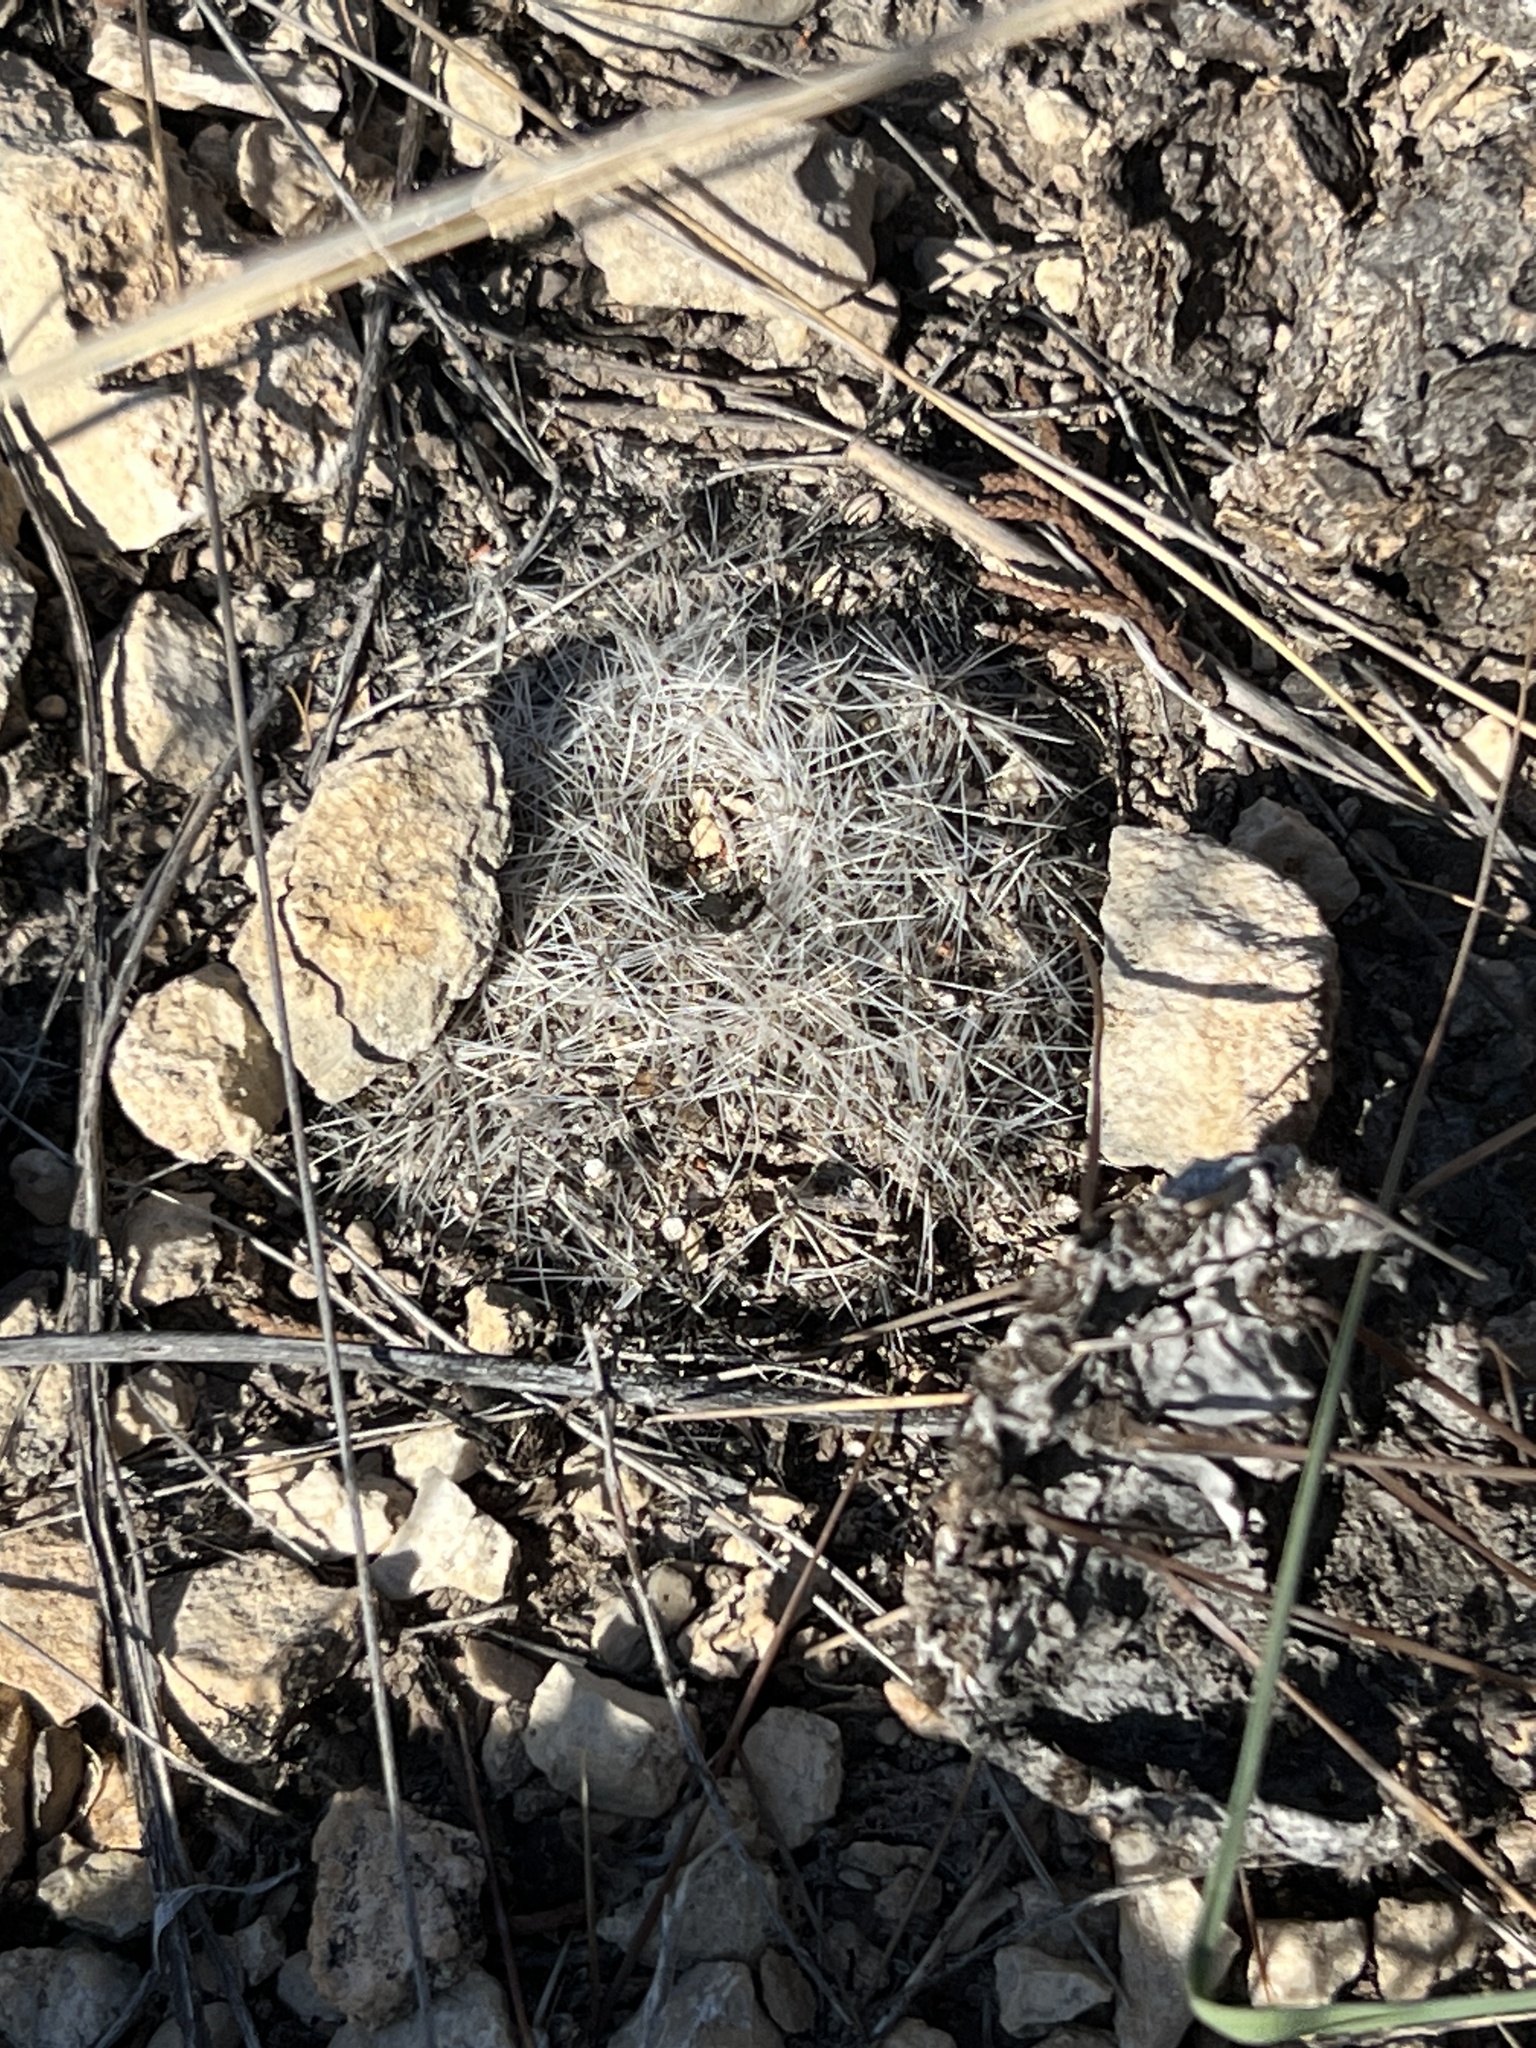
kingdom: Plantae
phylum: Tracheophyta
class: Magnoliopsida
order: Caryophyllales
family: Cactaceae
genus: Mammillaria
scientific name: Mammillaria heyderi
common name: Little nipple cactus
